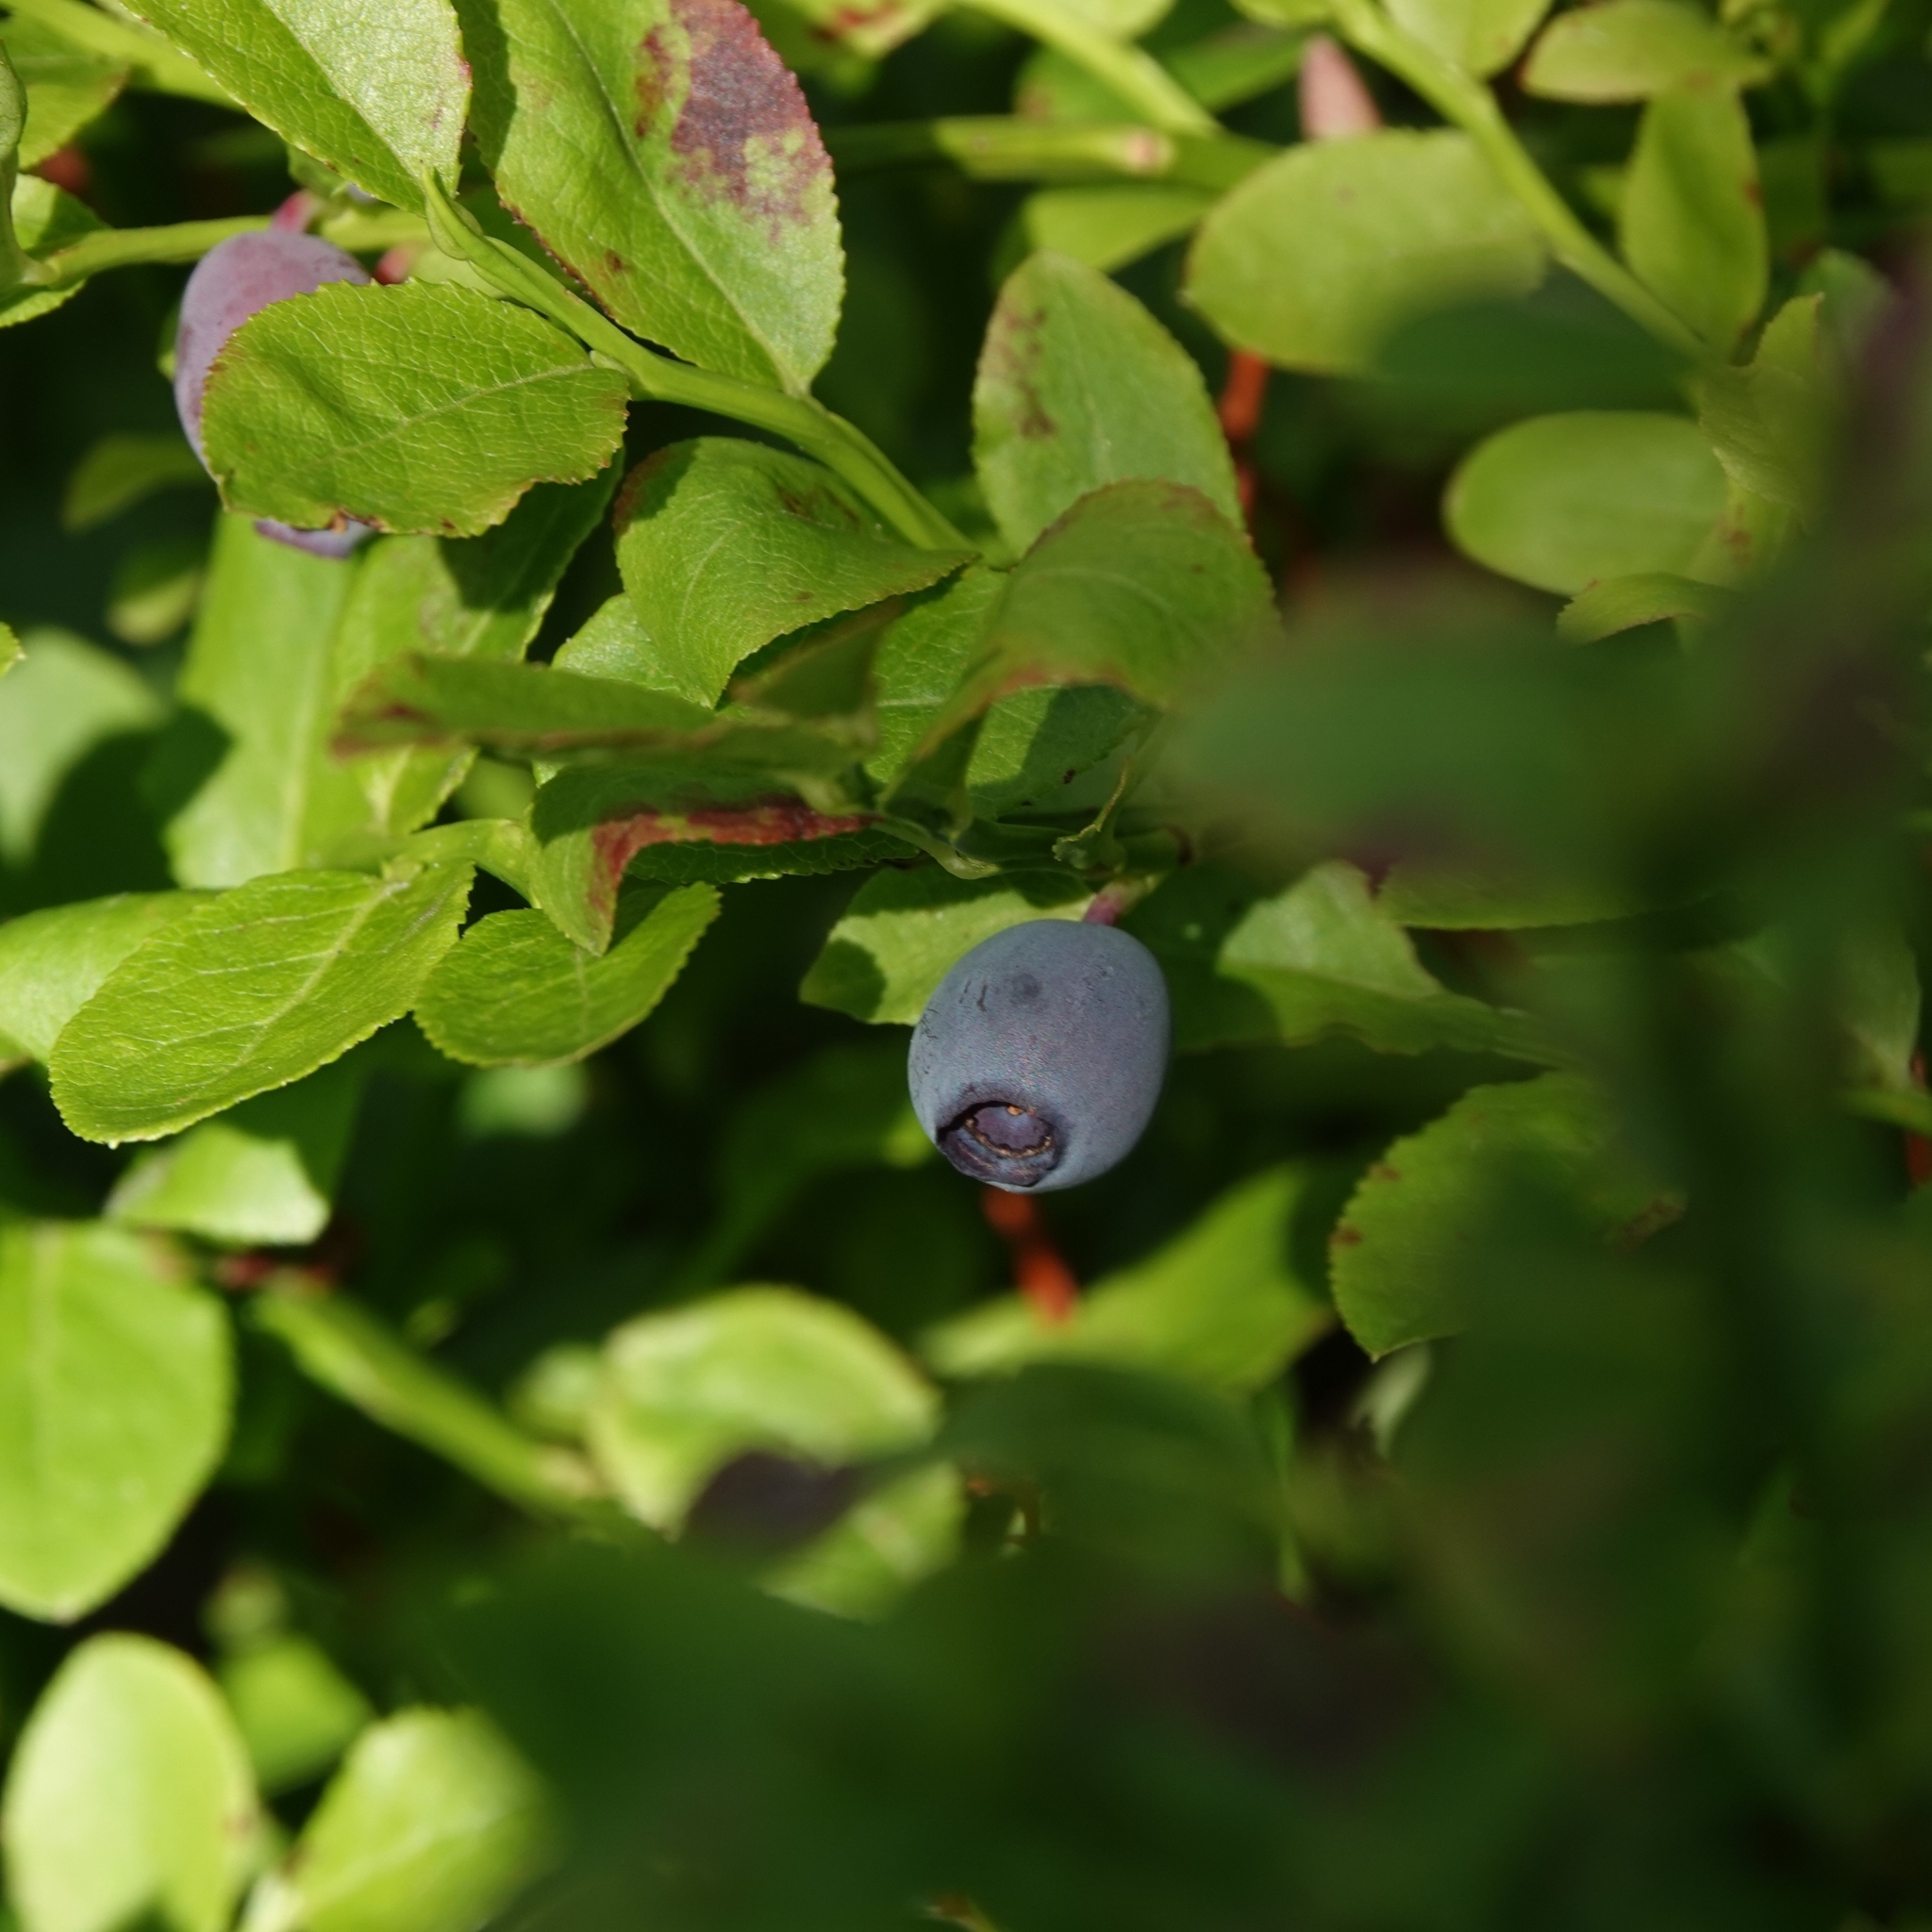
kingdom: Plantae
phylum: Tracheophyta
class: Magnoliopsida
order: Ericales
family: Ericaceae
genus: Vaccinium
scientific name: Vaccinium myrtillus
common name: Bilberry
